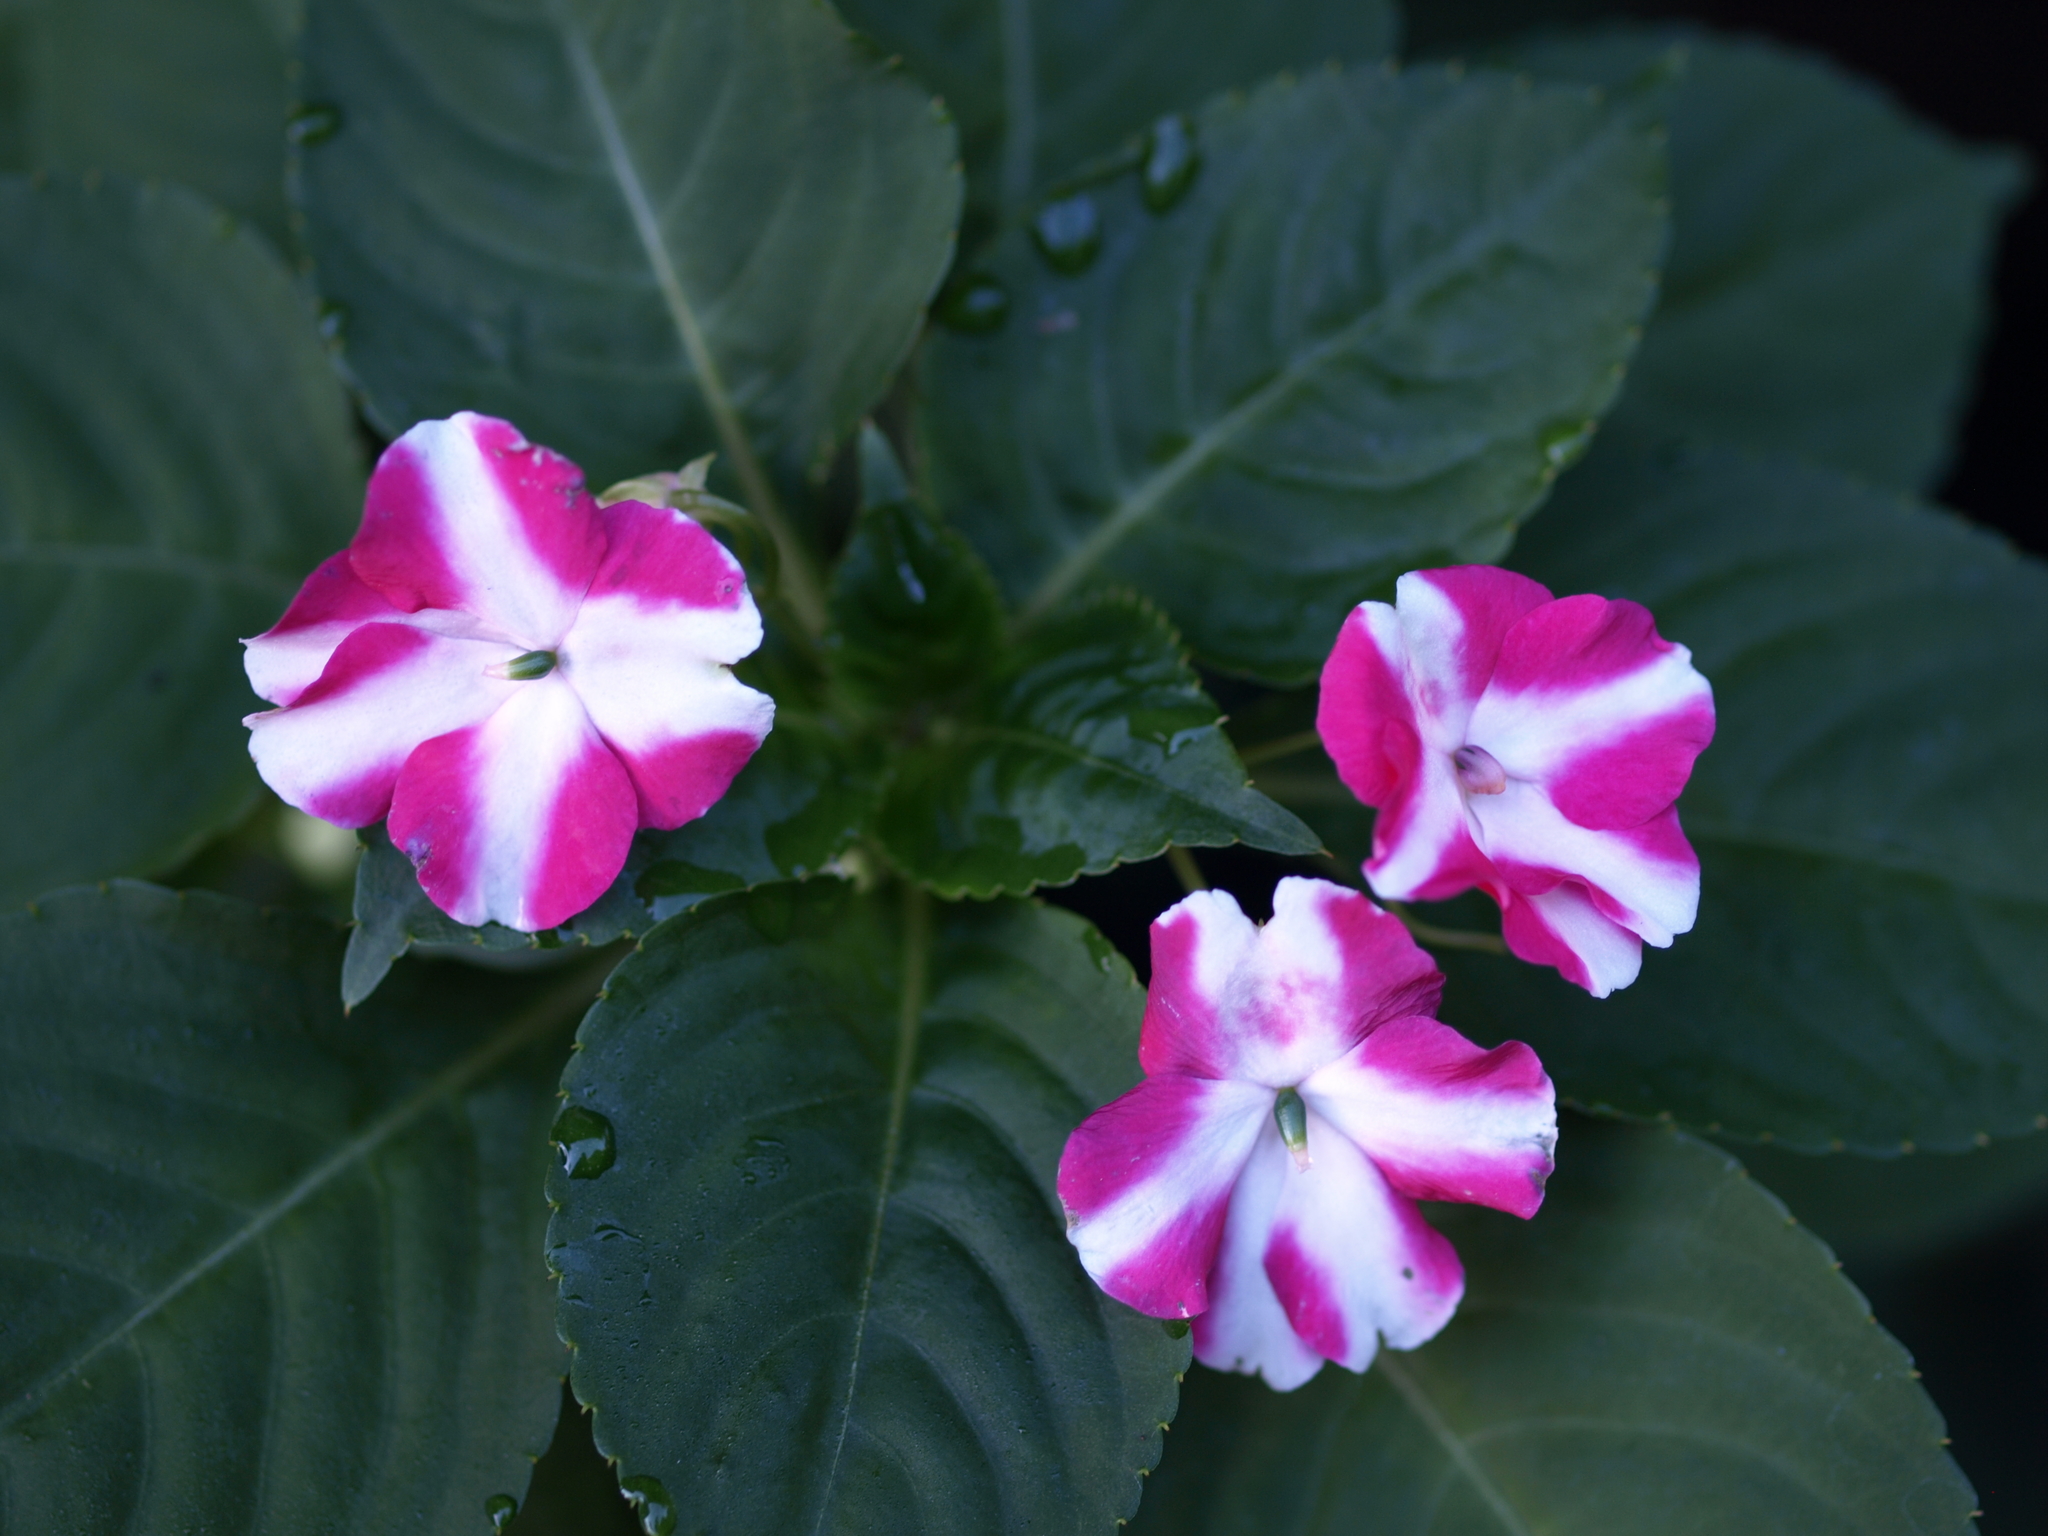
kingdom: Plantae
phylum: Tracheophyta
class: Magnoliopsida
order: Ericales
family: Balsaminaceae
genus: Impatiens
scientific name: Impatiens walleriana
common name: Buzzy lizzy
